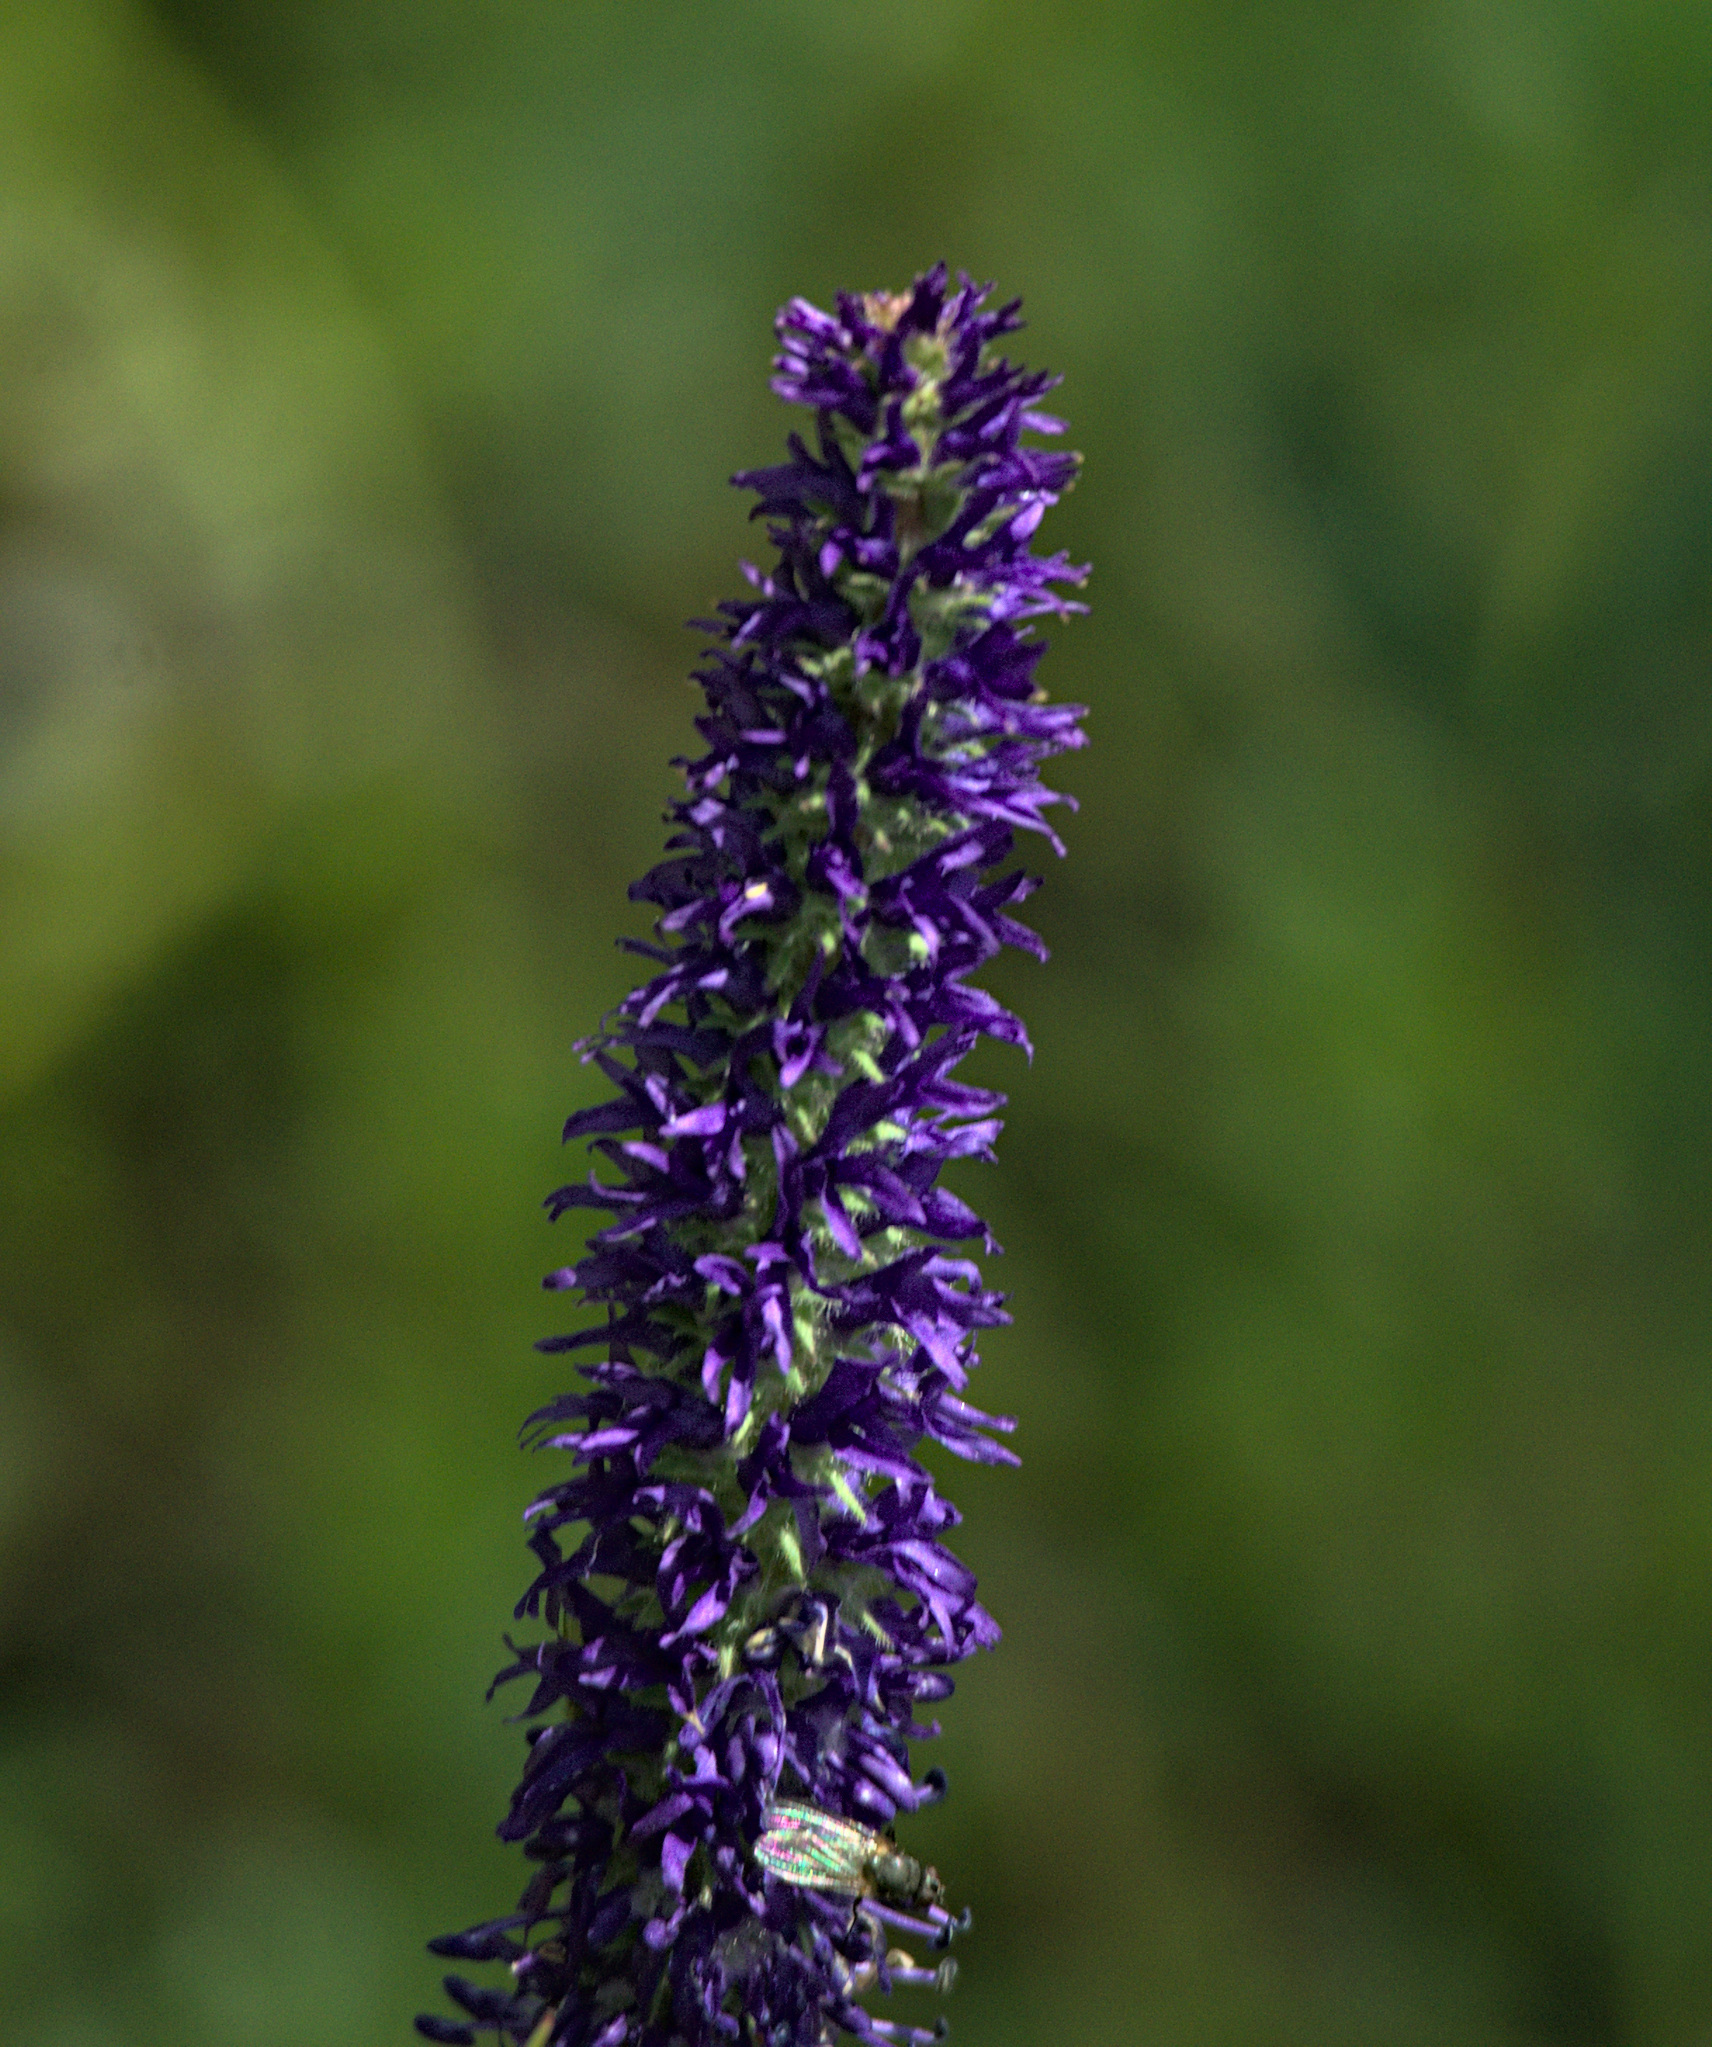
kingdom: Plantae
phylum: Tracheophyta
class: Magnoliopsida
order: Lamiales
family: Plantaginaceae
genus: Veronica
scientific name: Veronica porphyriana
